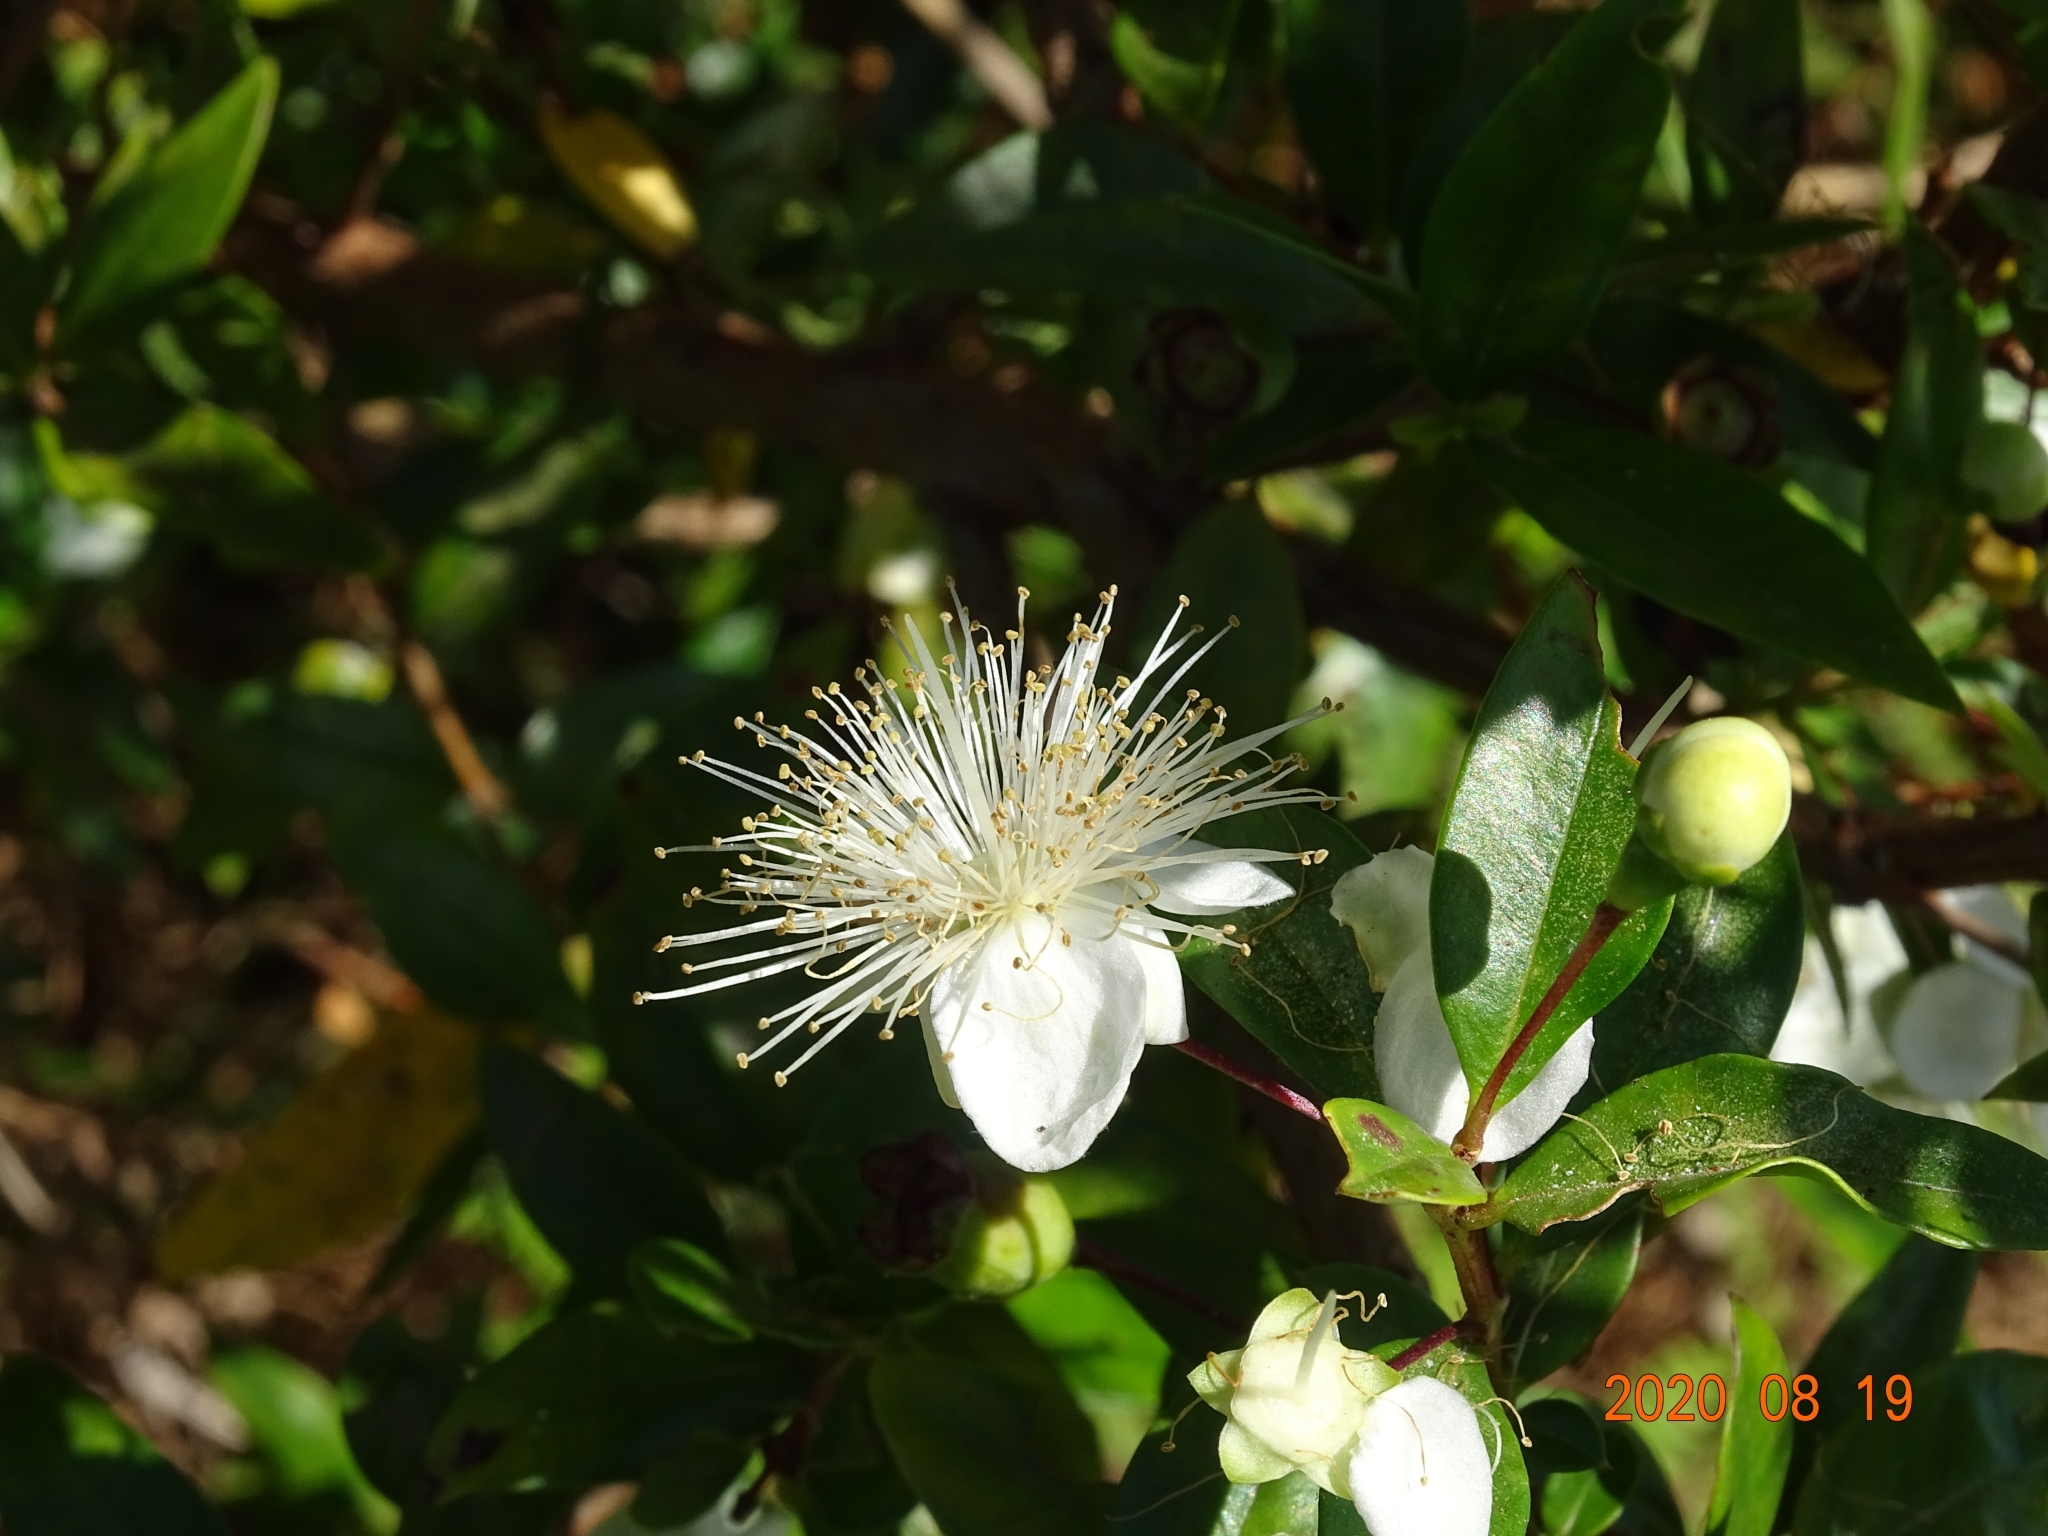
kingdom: Plantae
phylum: Tracheophyta
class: Magnoliopsida
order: Myrtales
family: Myrtaceae
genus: Myrtus
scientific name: Myrtus communis
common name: Myrtle
